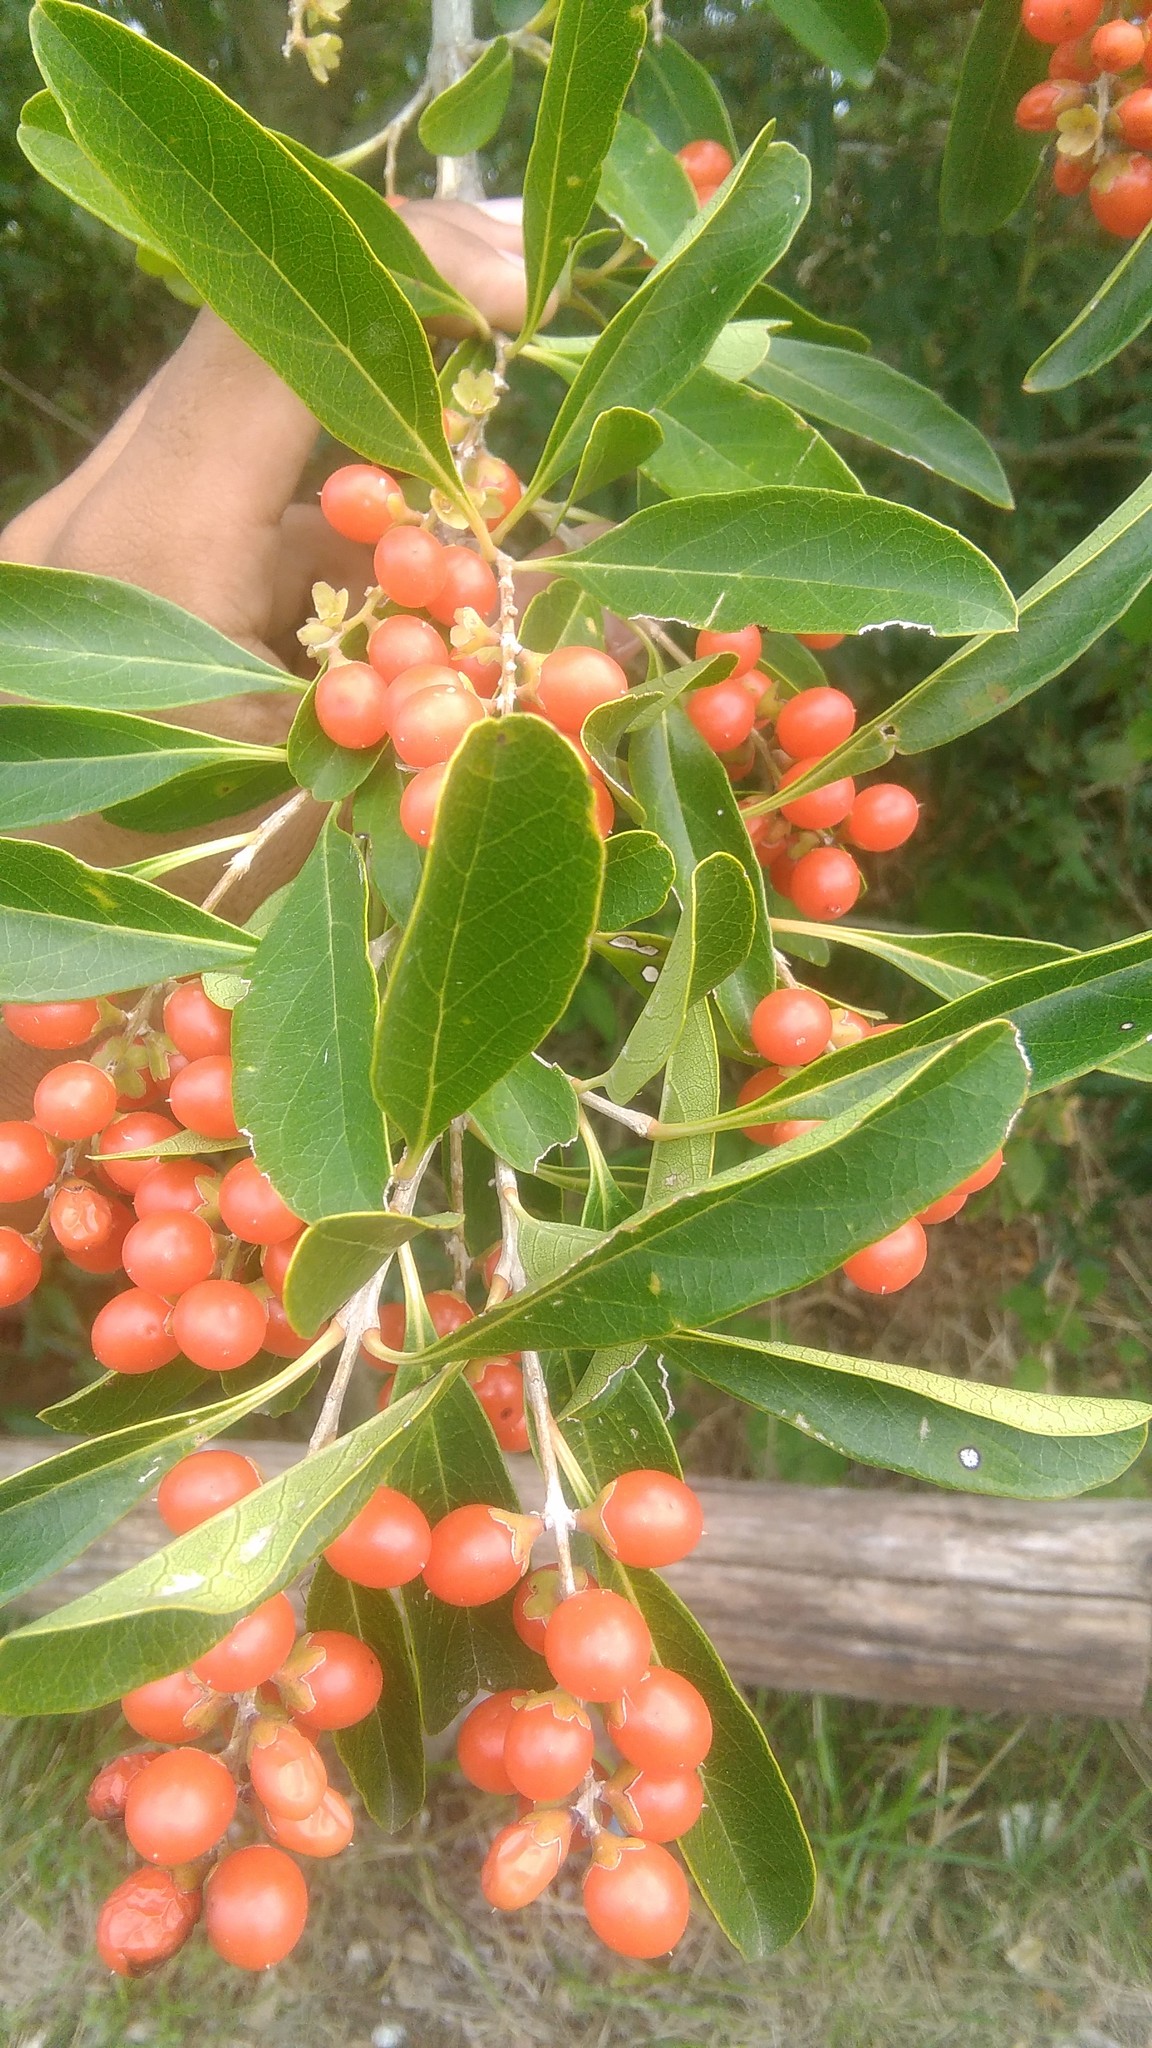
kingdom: Plantae
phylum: Tracheophyta
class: Magnoliopsida
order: Lamiales
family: Verbenaceae
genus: Citharexylum
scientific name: Citharexylum montevidense
